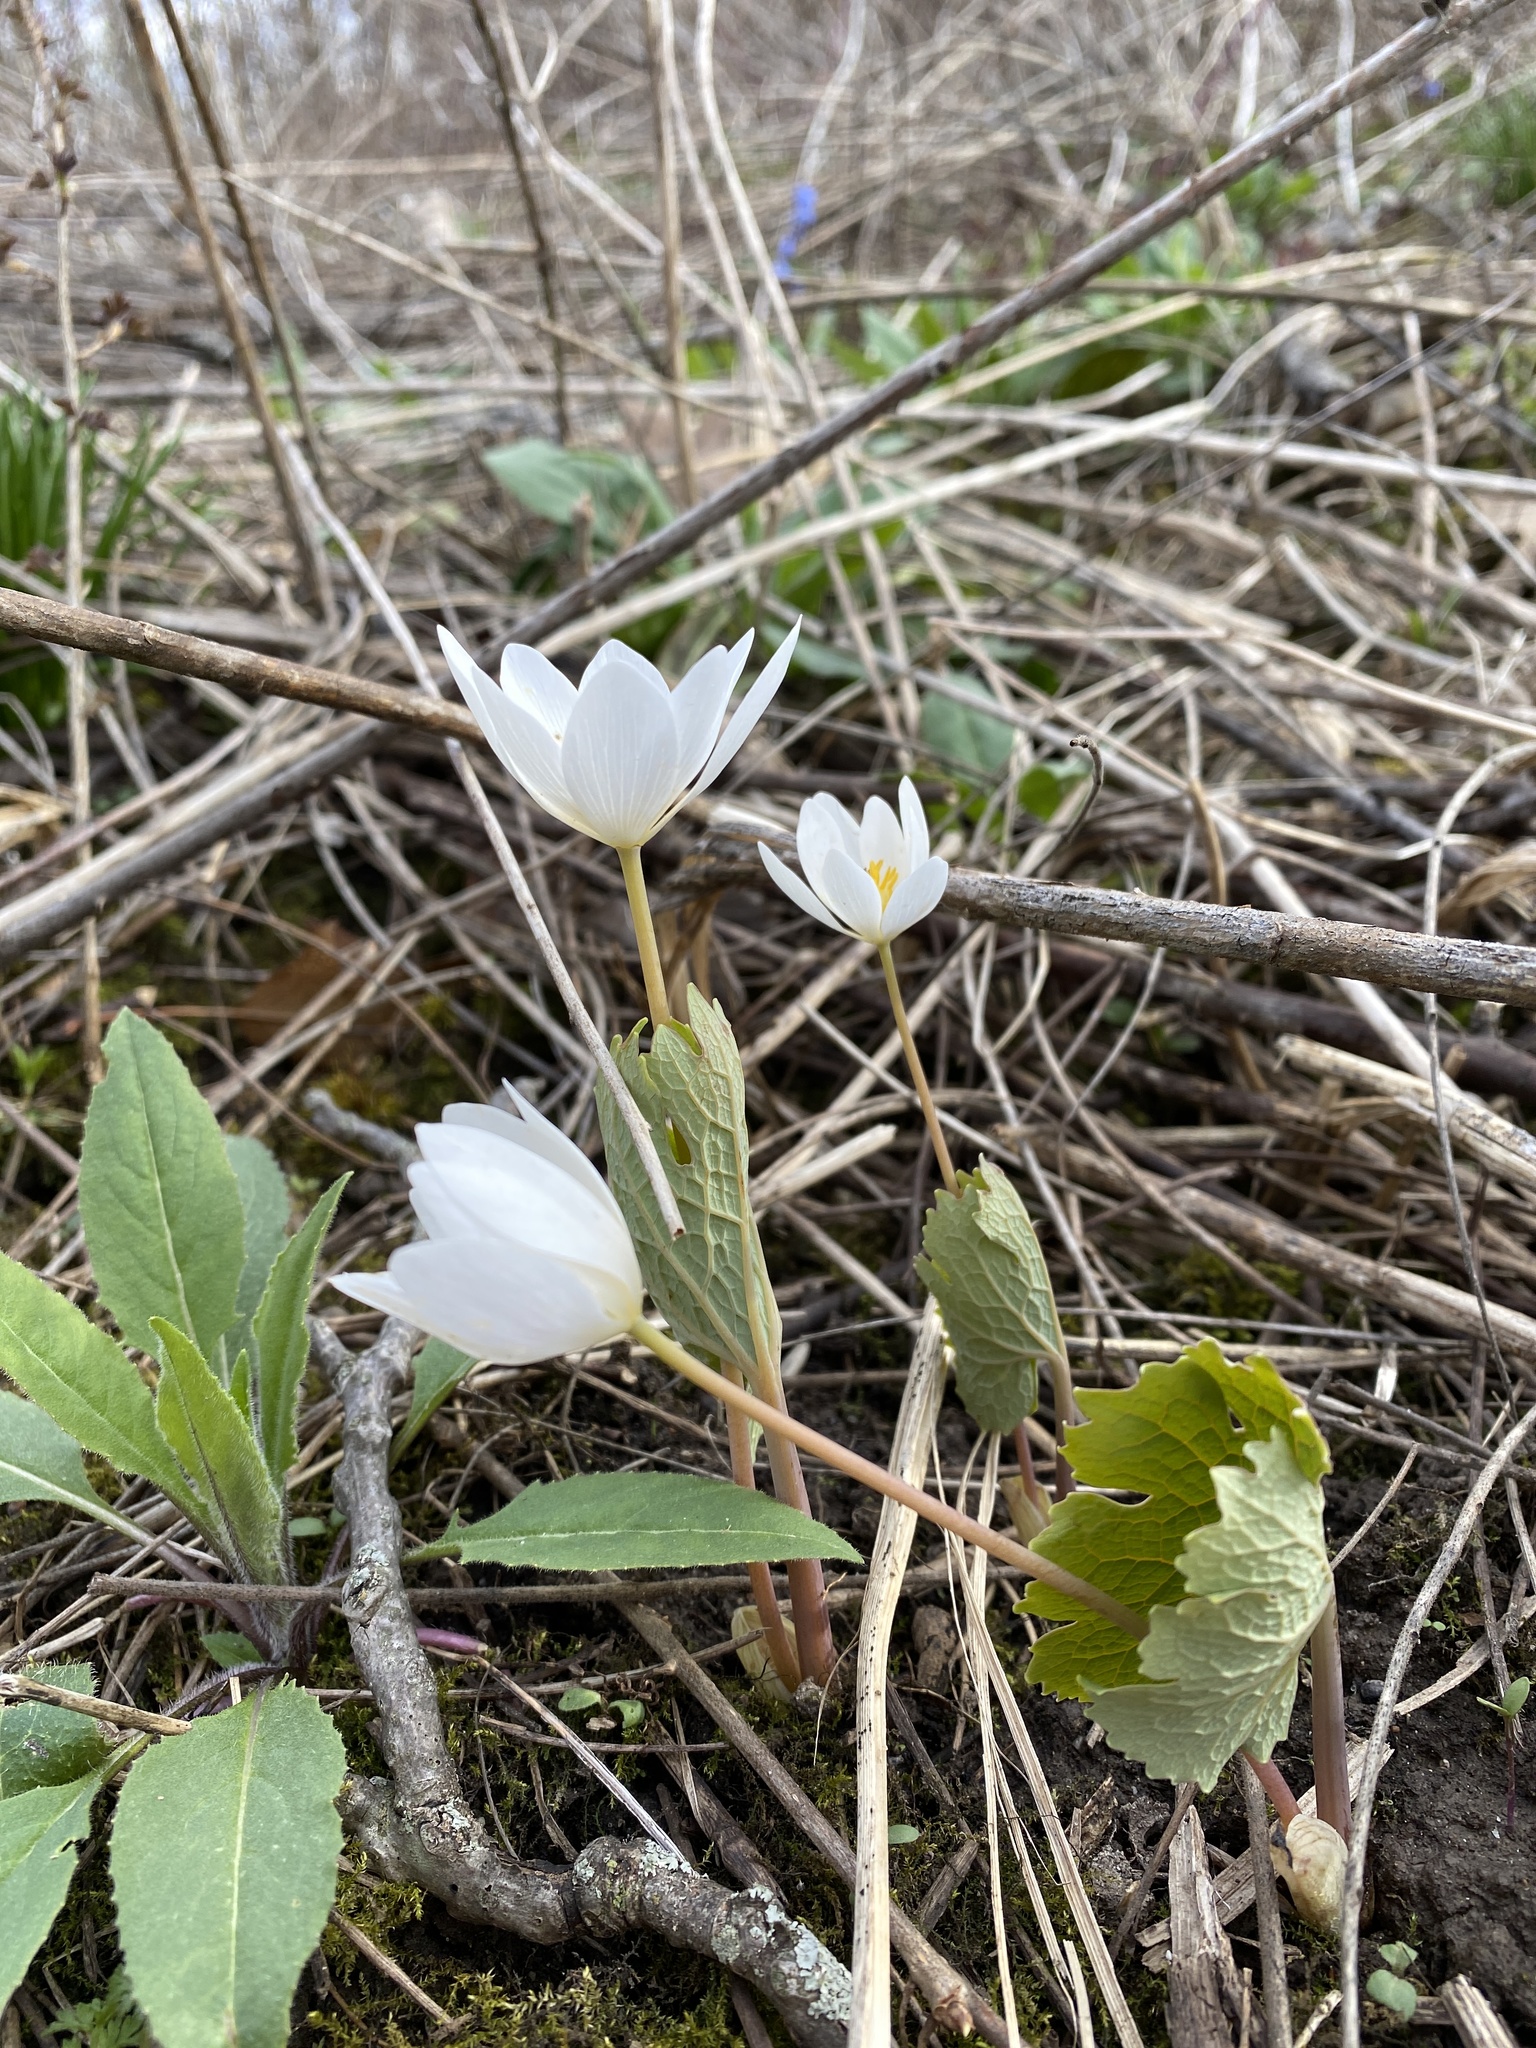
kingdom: Plantae
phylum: Tracheophyta
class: Magnoliopsida
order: Ranunculales
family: Papaveraceae
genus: Sanguinaria
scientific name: Sanguinaria canadensis
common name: Bloodroot
